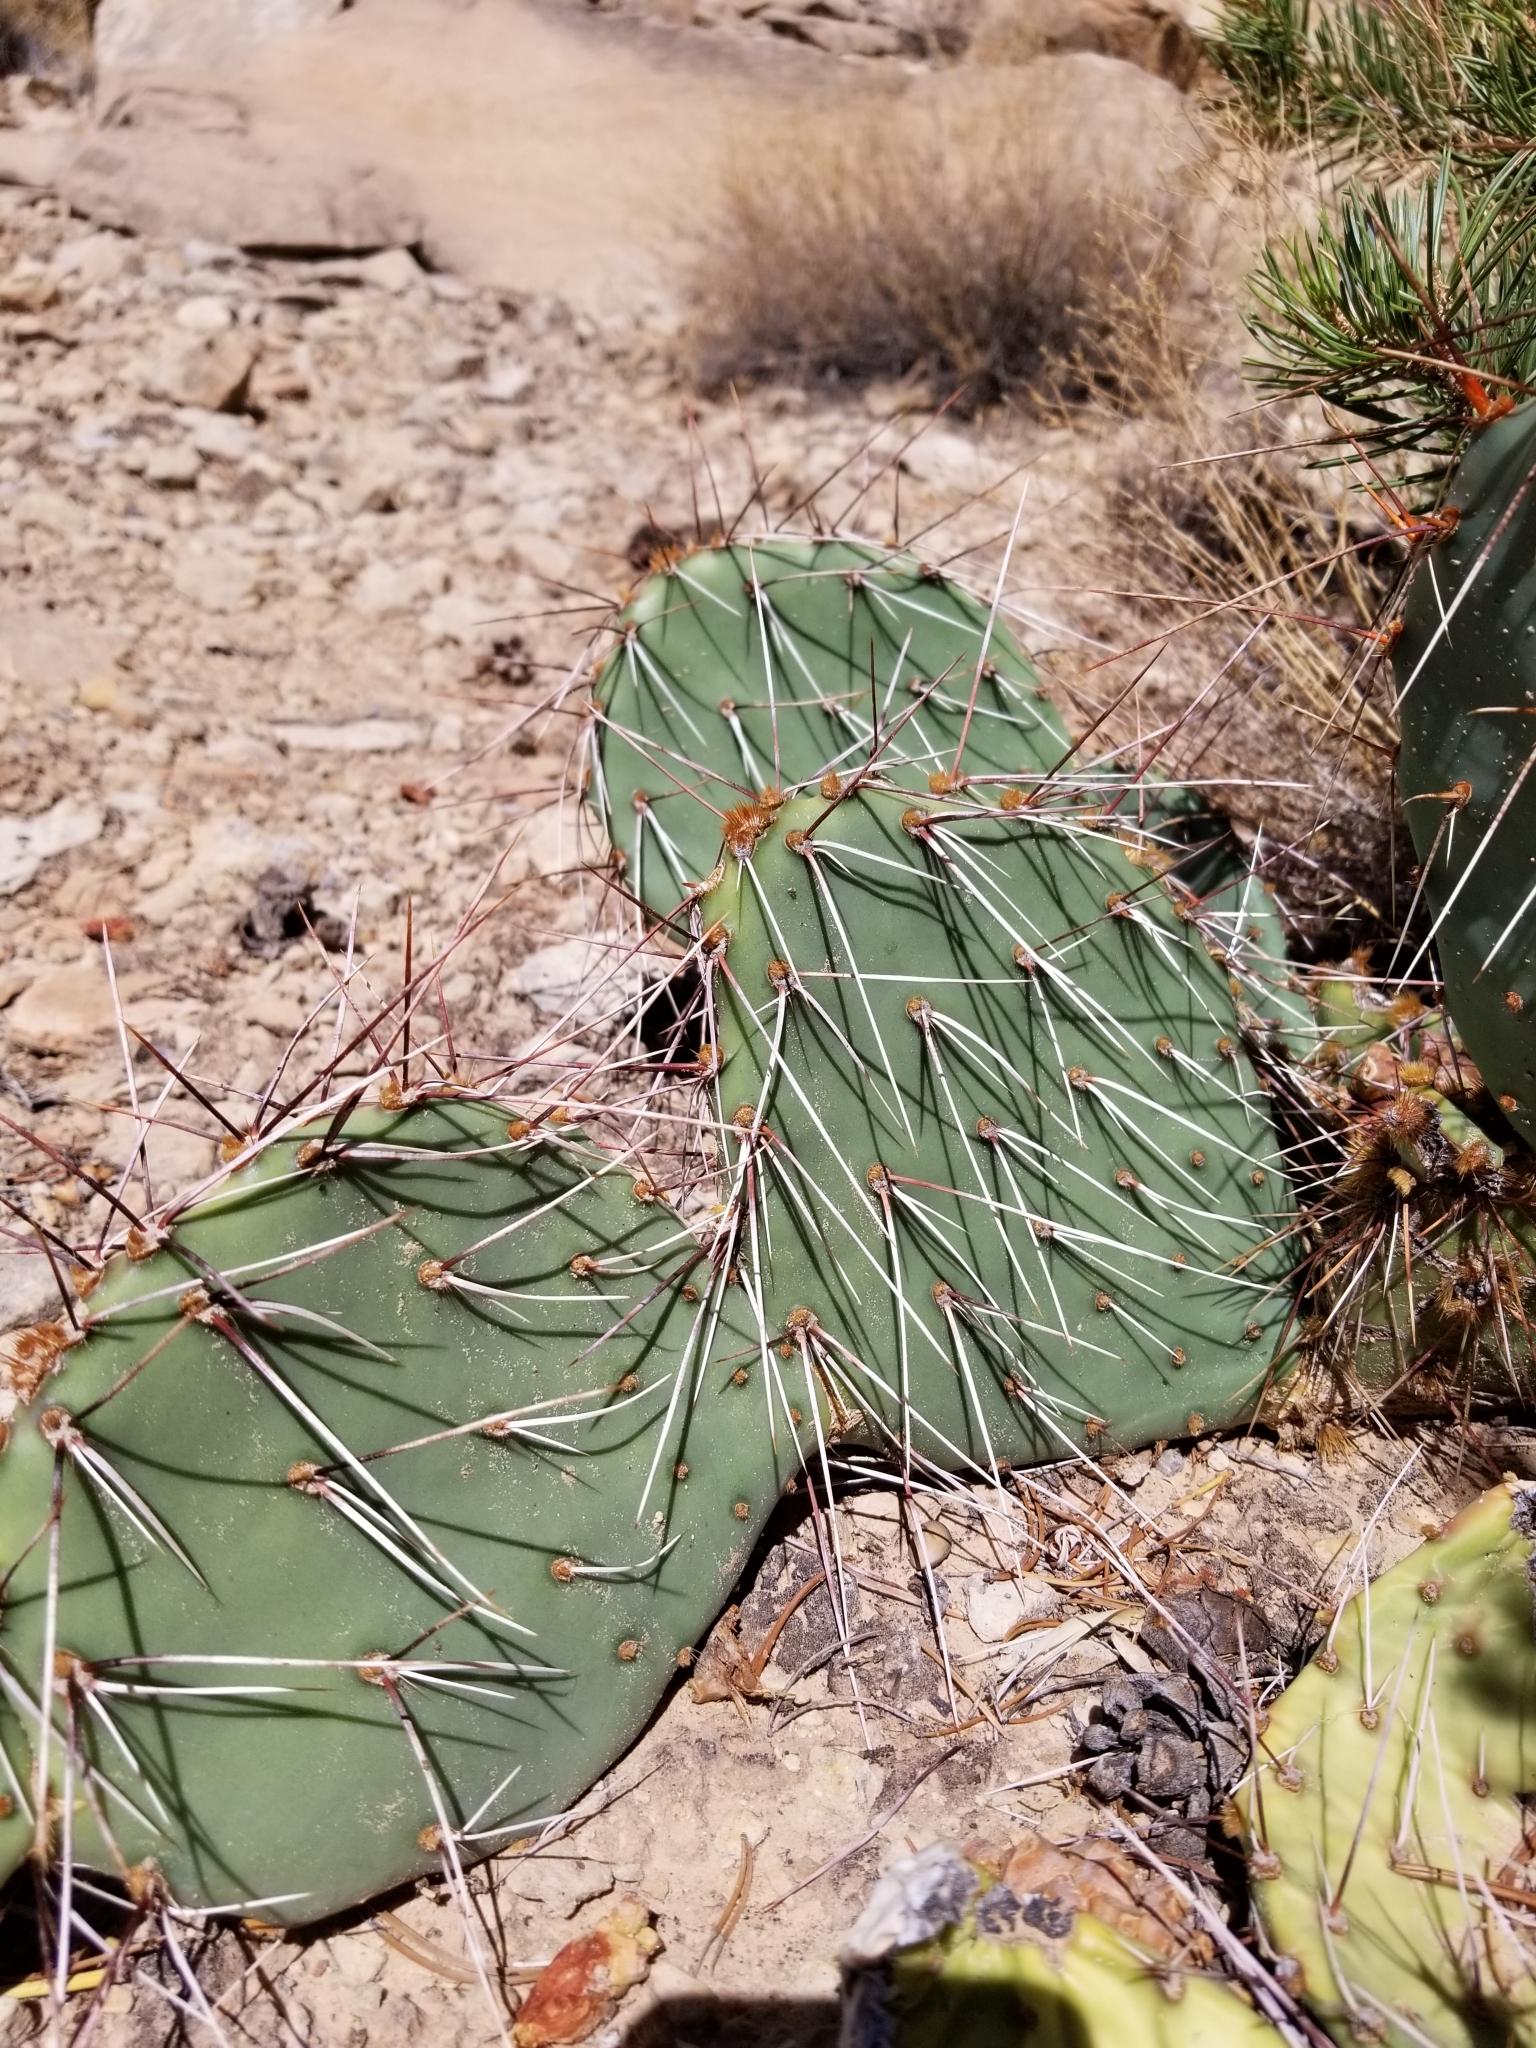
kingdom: Plantae
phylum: Tracheophyta
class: Magnoliopsida
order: Caryophyllales
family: Cactaceae
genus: Opuntia
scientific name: Opuntia phaeacantha
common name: New mexico prickly-pear
